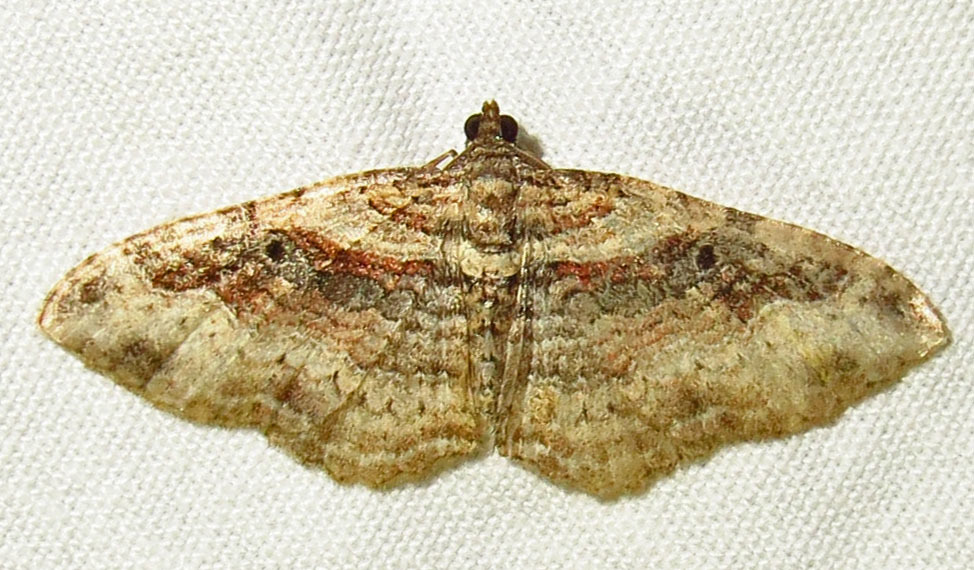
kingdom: Animalia
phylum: Arthropoda
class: Insecta
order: Lepidoptera
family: Geometridae
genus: Orthonama
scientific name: Orthonama obstipata
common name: The gem
